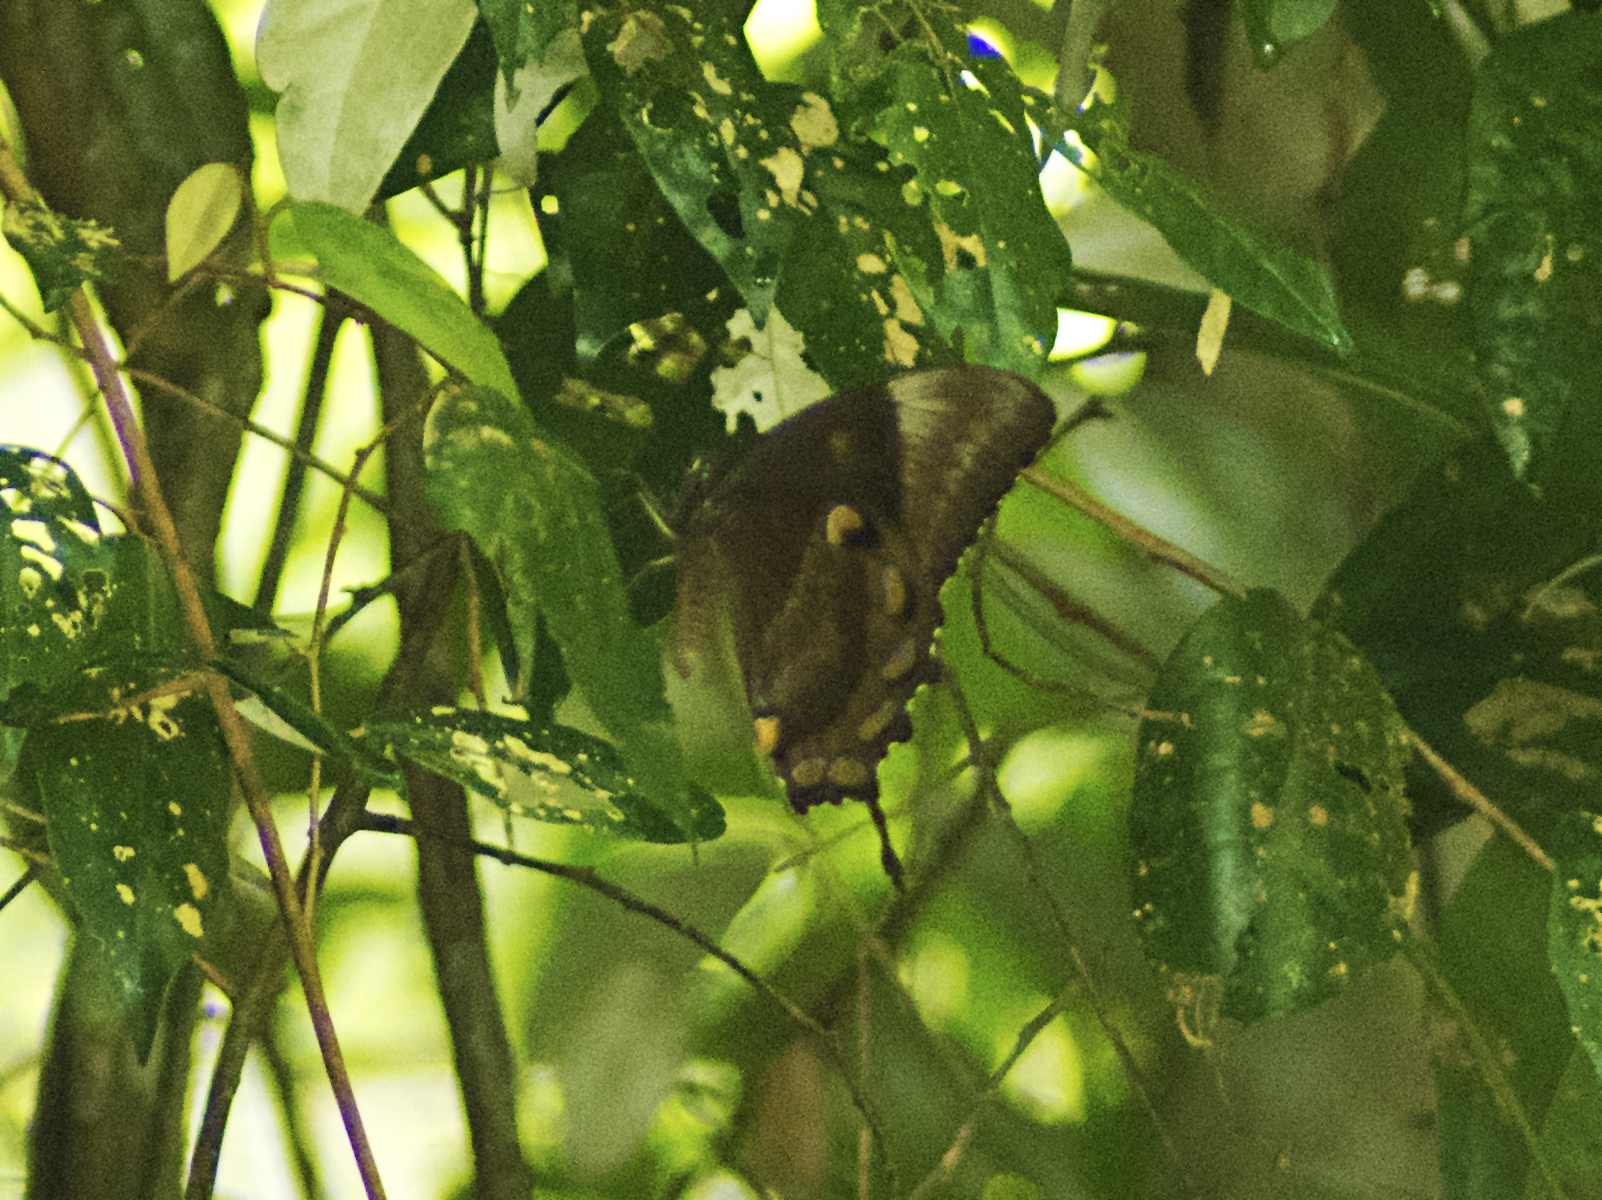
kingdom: Animalia
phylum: Arthropoda
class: Insecta
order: Lepidoptera
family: Papilionidae
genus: Papilio
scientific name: Papilio ulysses
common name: Blue emperor
